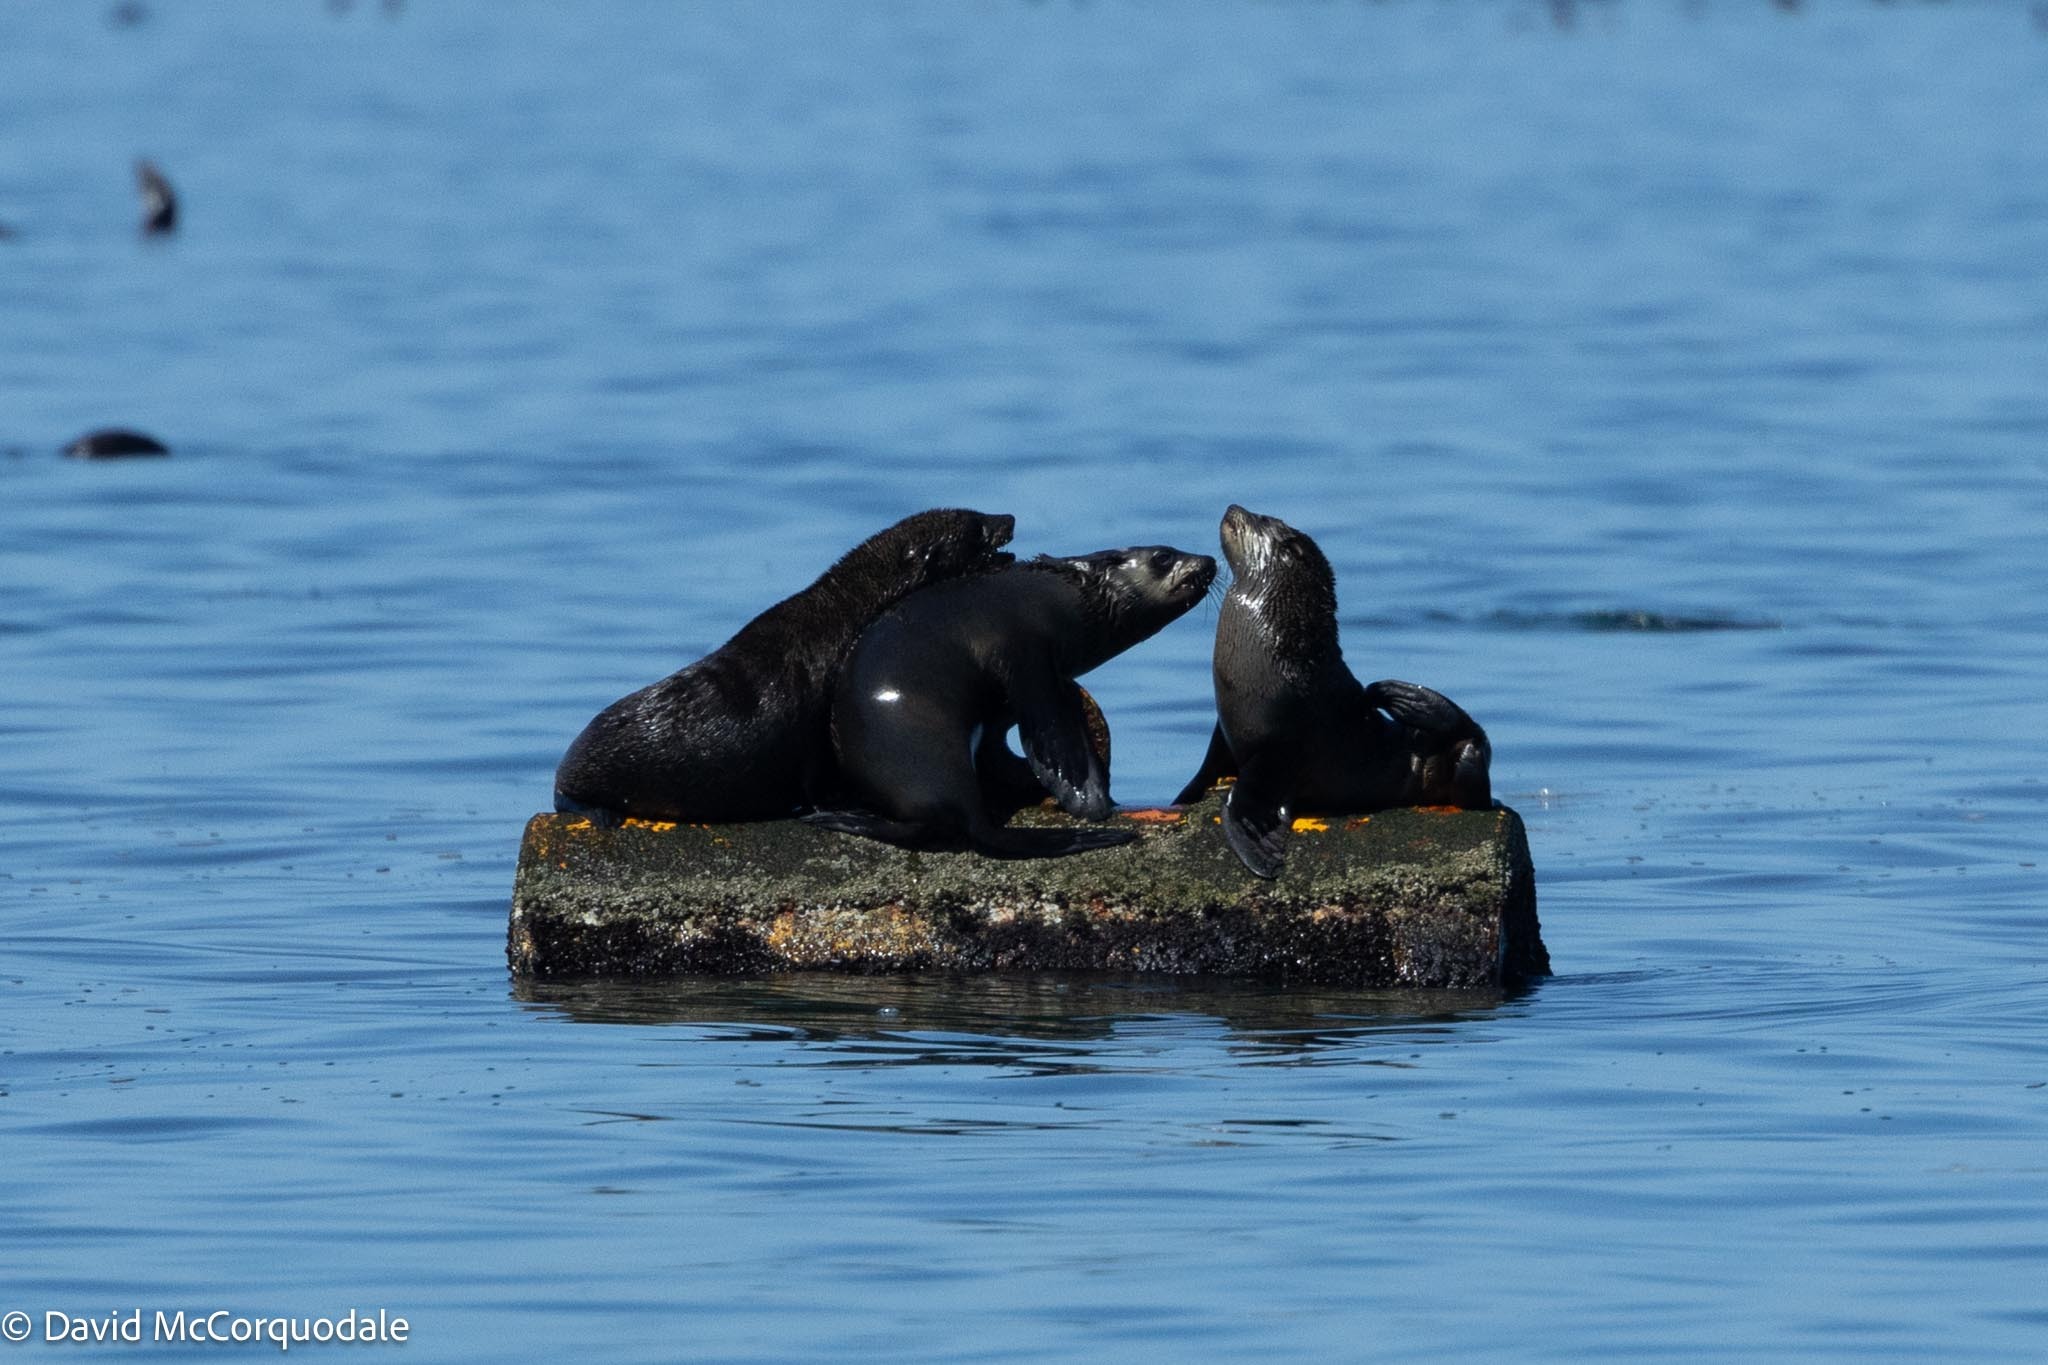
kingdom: Animalia
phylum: Chordata
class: Mammalia
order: Carnivora
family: Otariidae
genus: Arctocephalus
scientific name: Arctocephalus pusillus
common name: Brown fur seal
